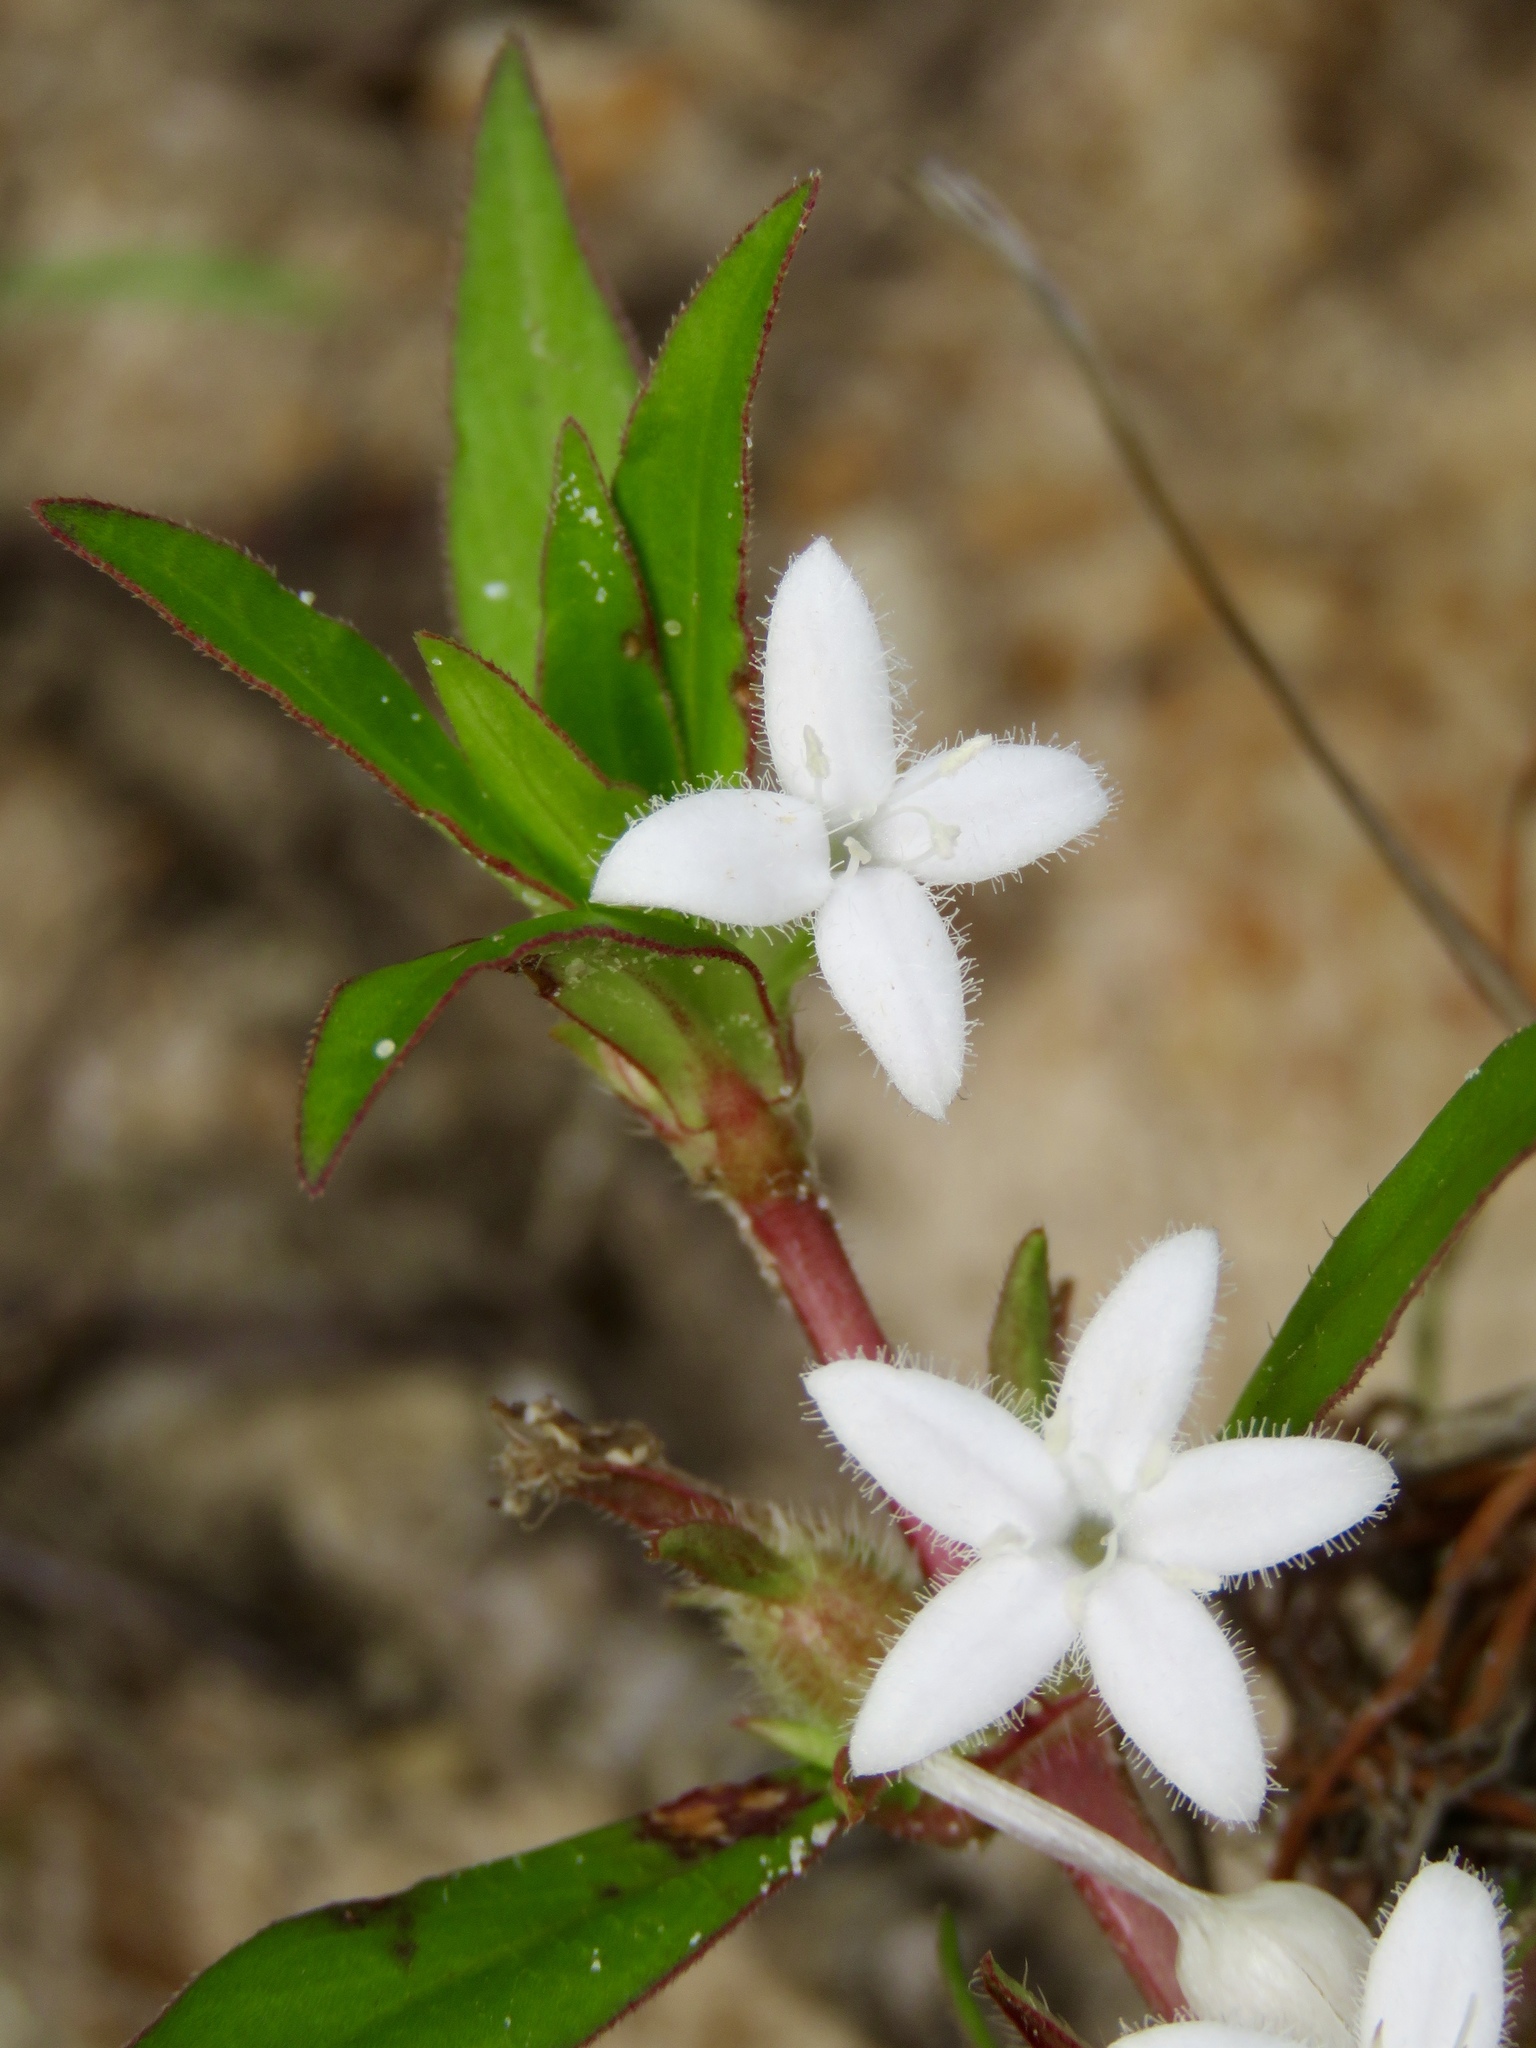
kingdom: Plantae
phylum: Tracheophyta
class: Magnoliopsida
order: Gentianales
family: Rubiaceae
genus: Diodia
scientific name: Diodia virginiana
